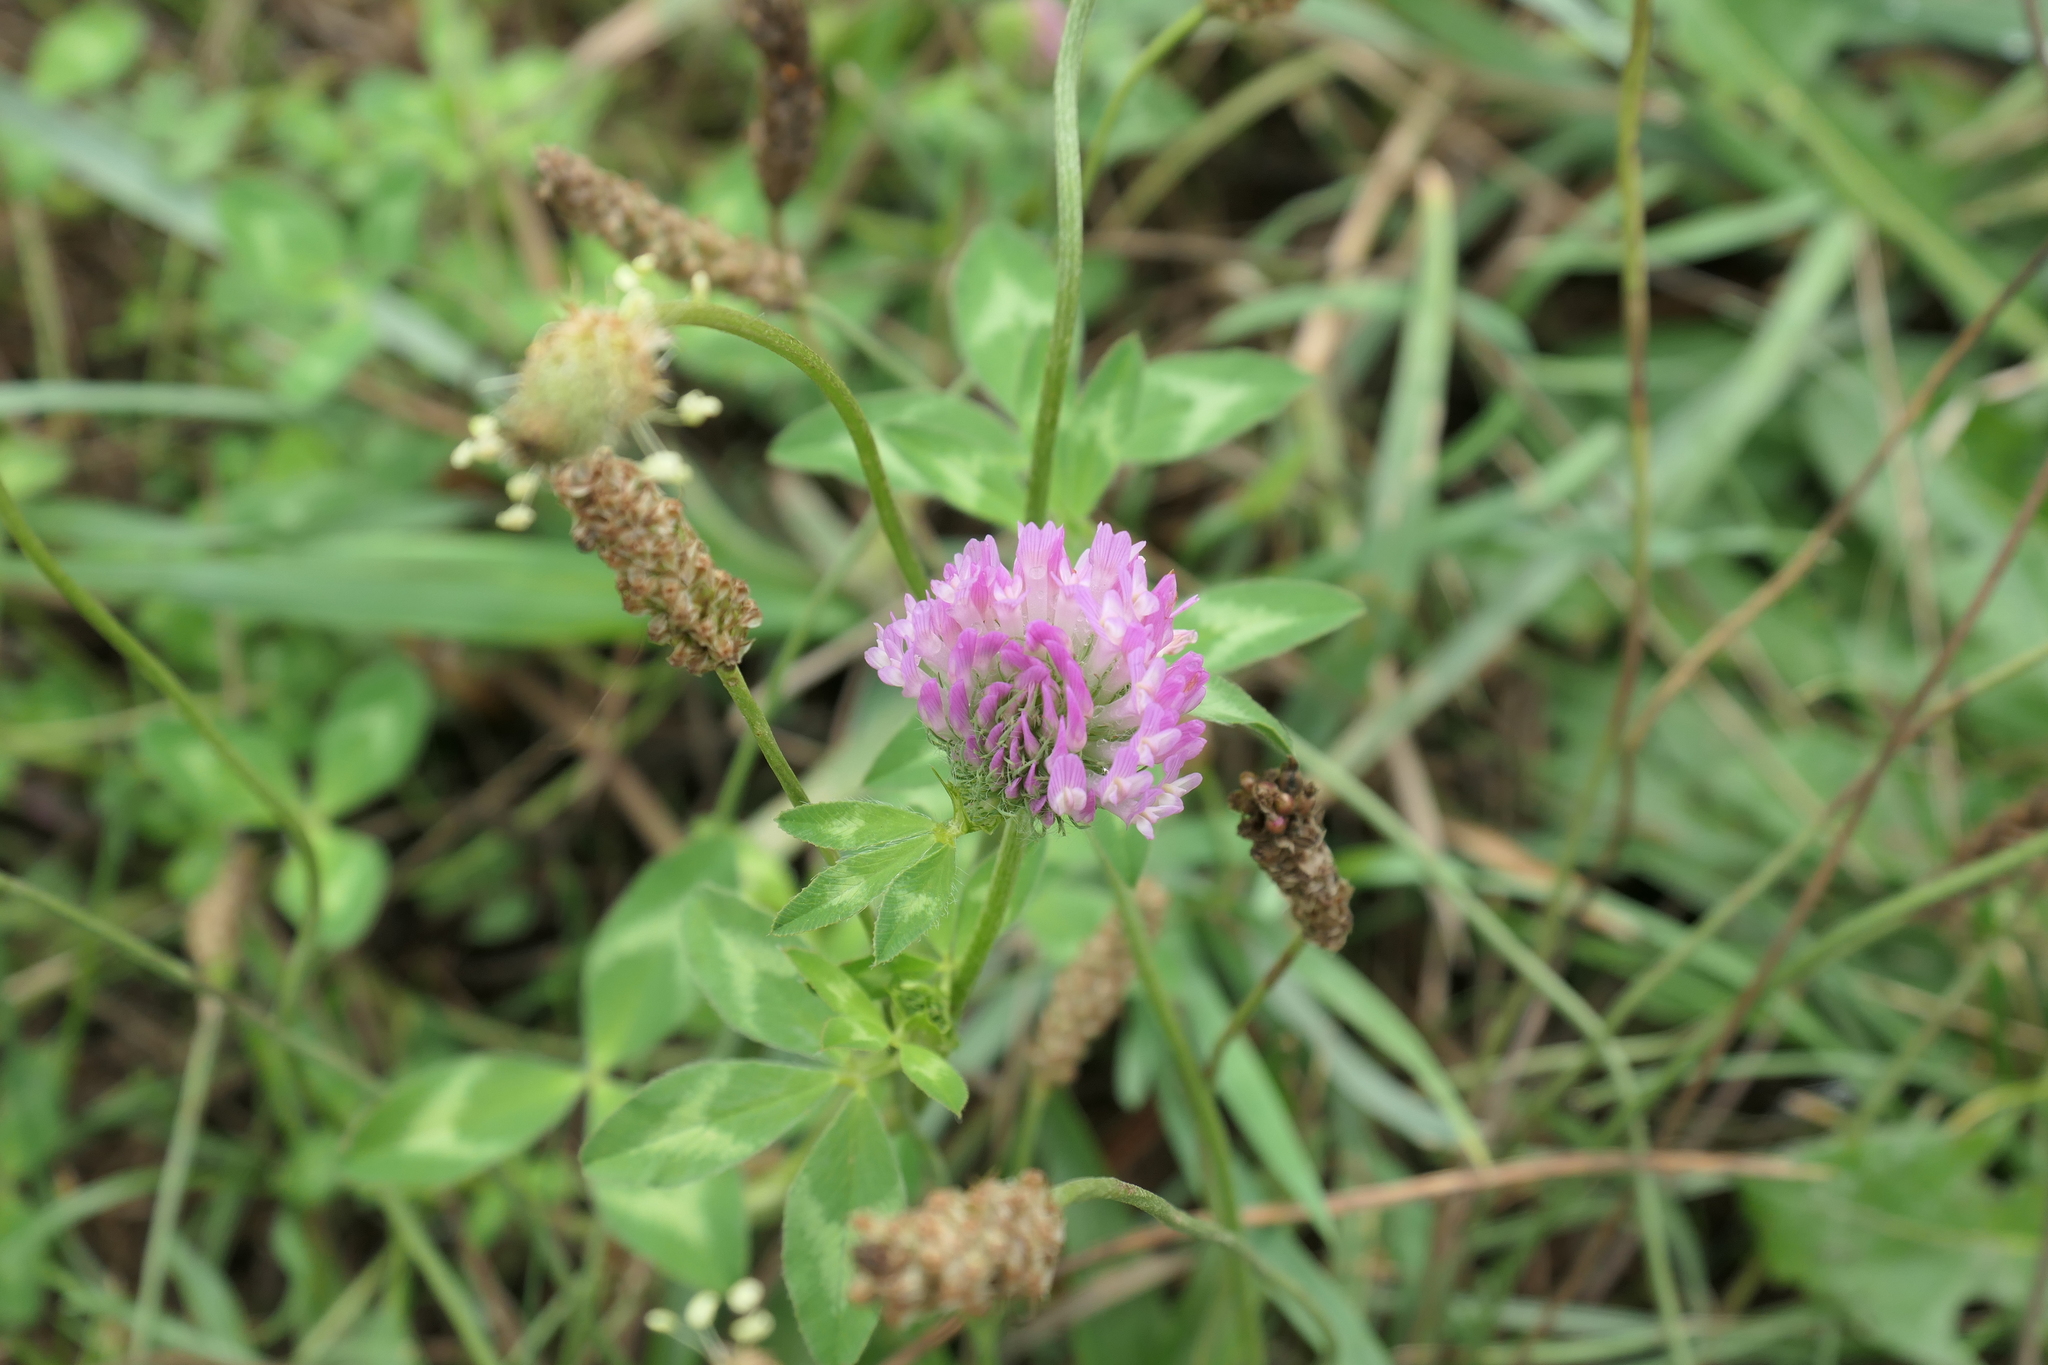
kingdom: Plantae
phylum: Tracheophyta
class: Magnoliopsida
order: Fabales
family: Fabaceae
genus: Trifolium
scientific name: Trifolium pratense
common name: Red clover
